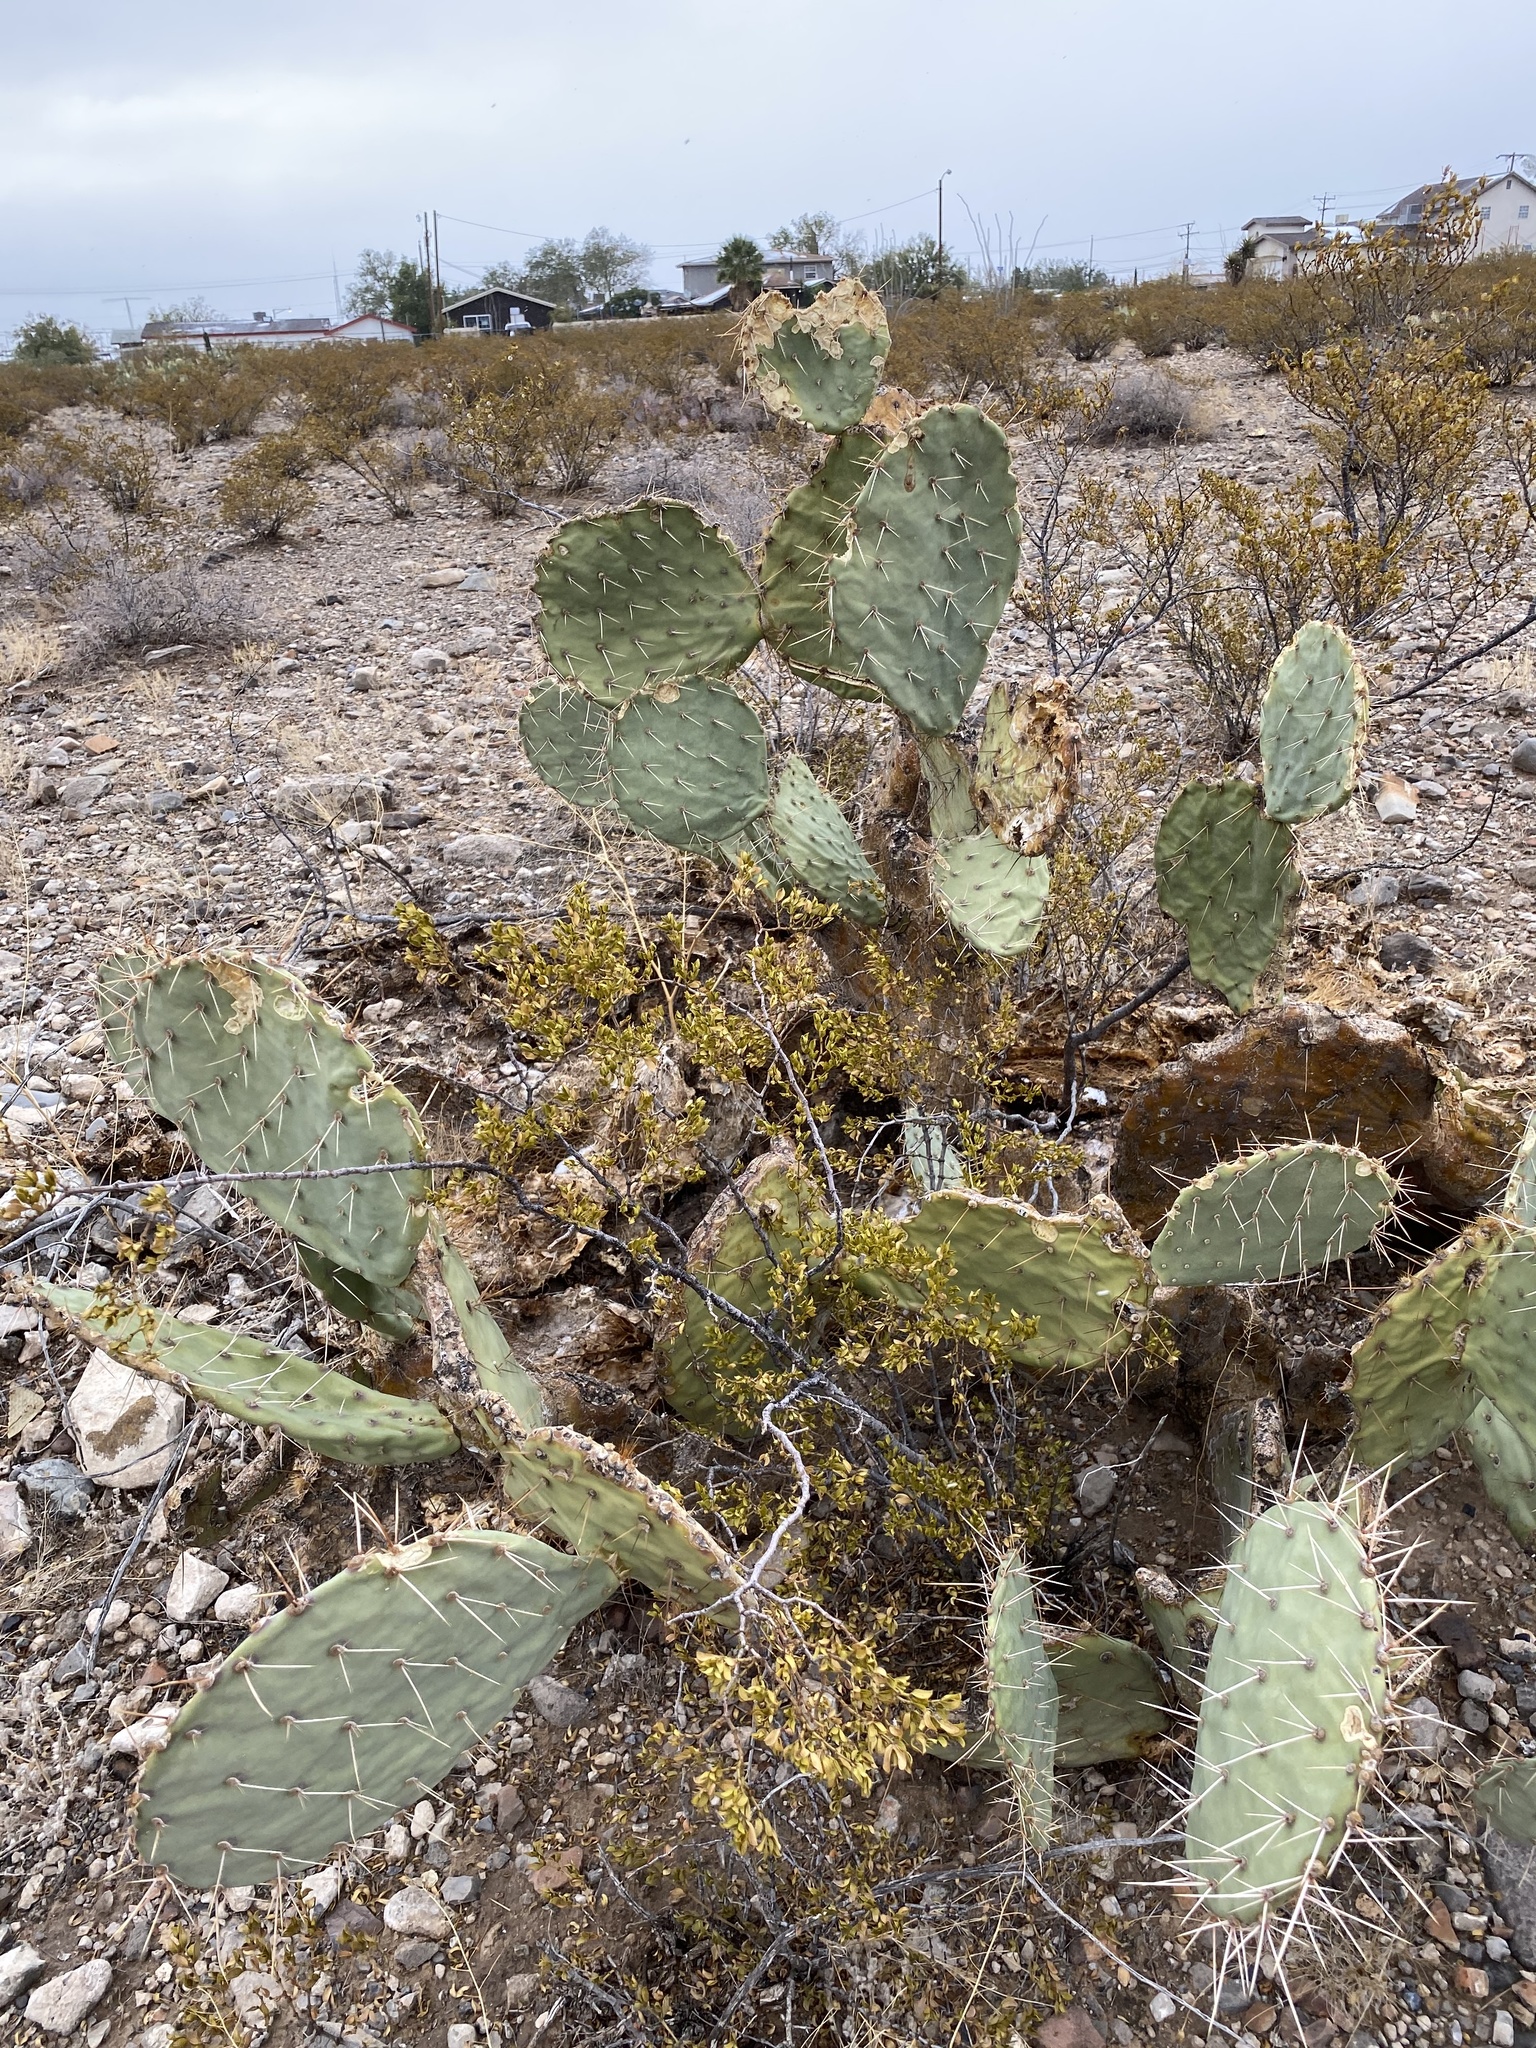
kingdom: Plantae
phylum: Tracheophyta
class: Magnoliopsida
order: Caryophyllales
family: Cactaceae
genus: Opuntia
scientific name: Opuntia engelmannii
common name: Cactus-apple
